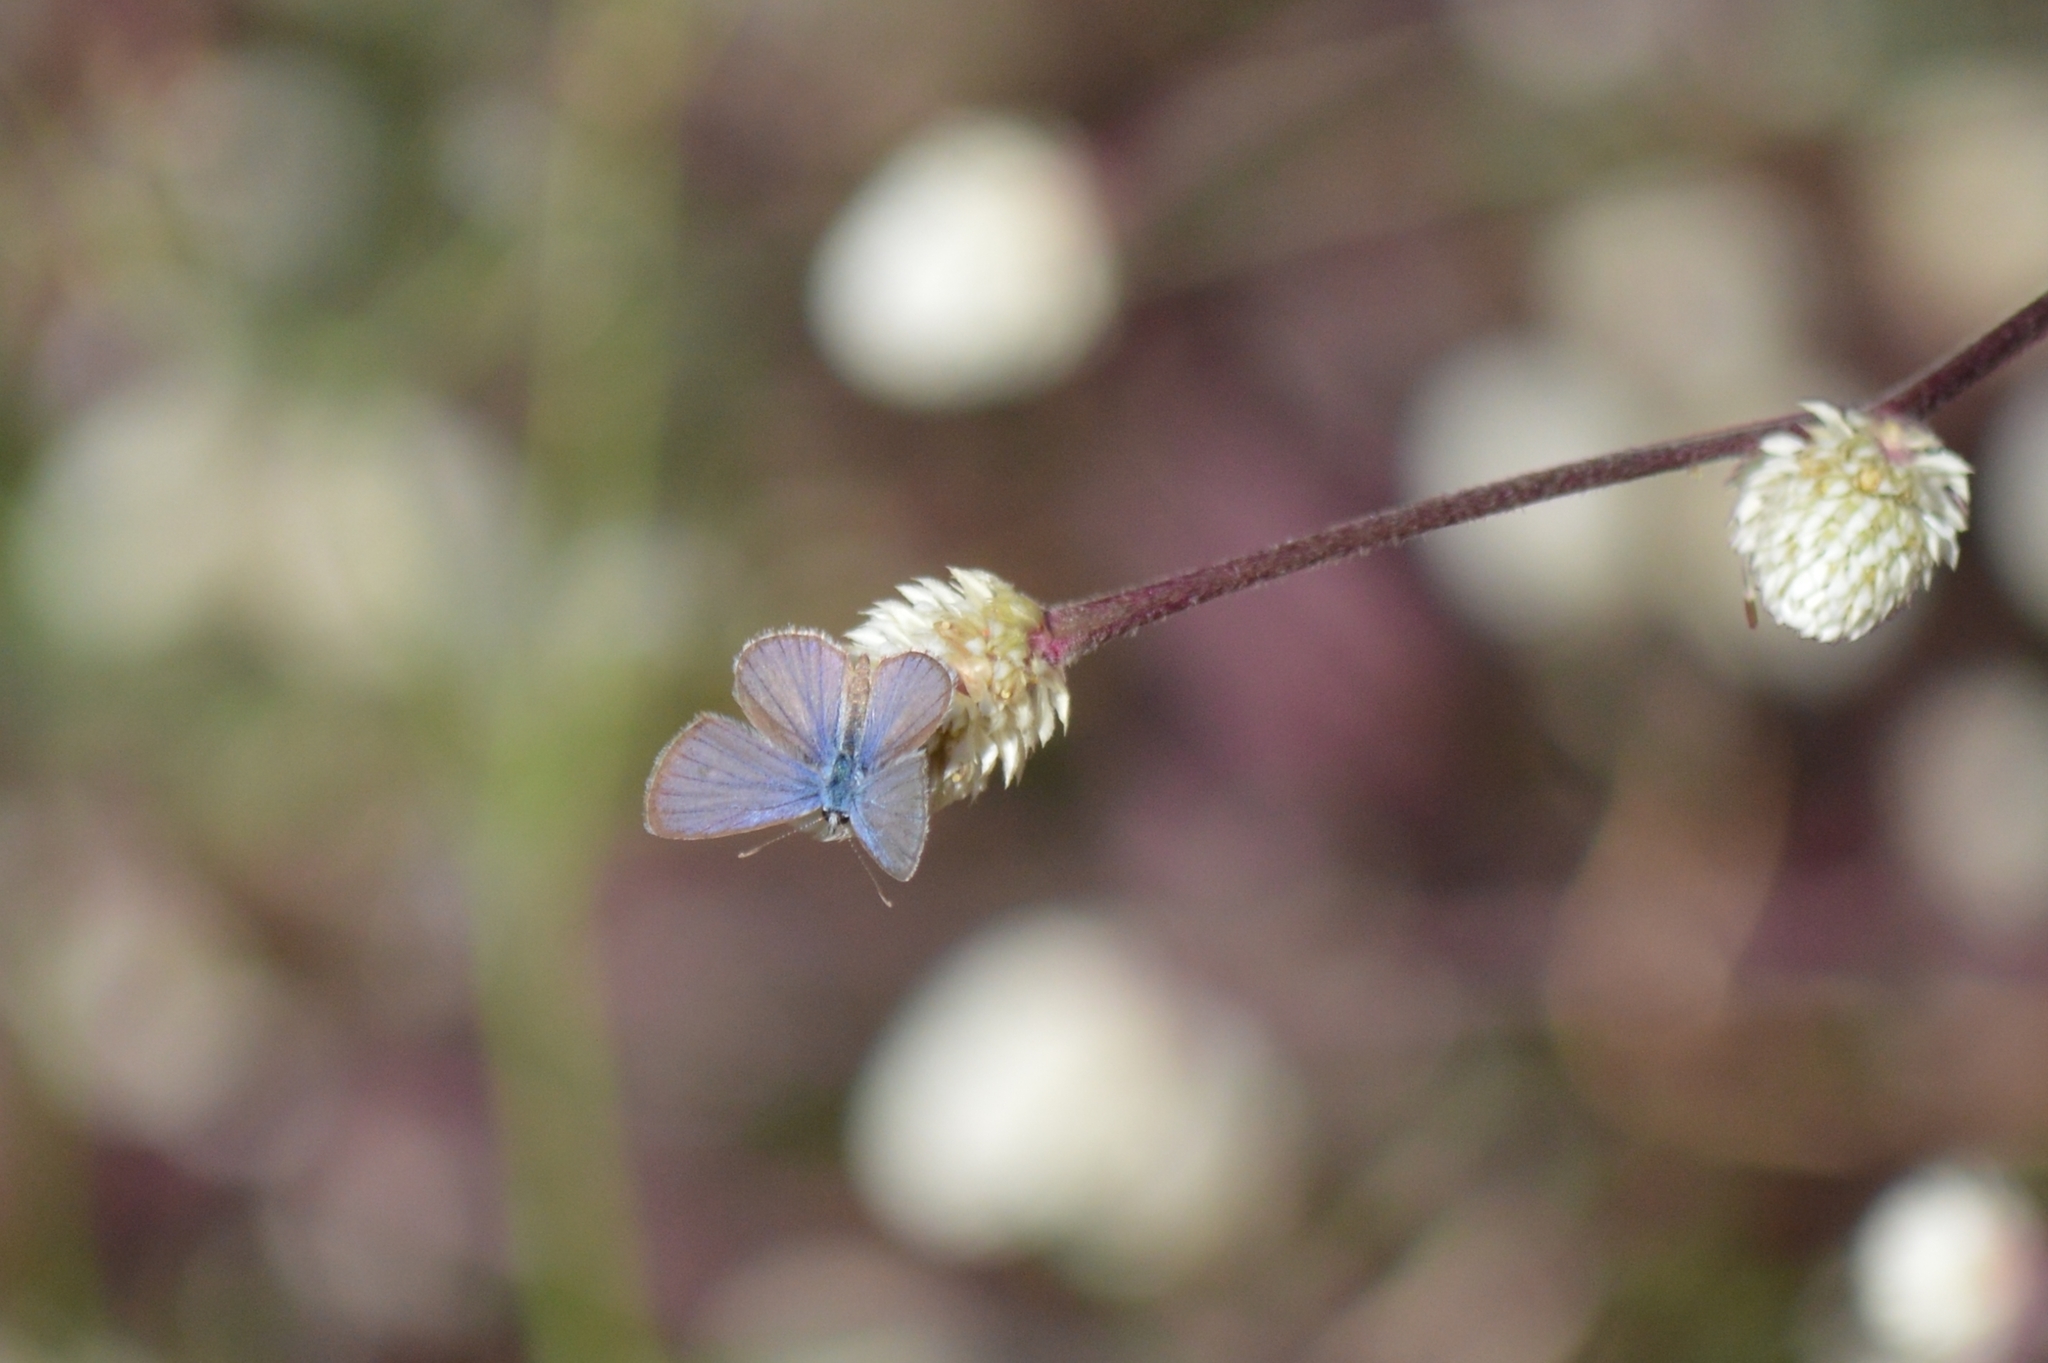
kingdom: Animalia
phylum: Arthropoda
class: Insecta
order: Lepidoptera
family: Lycaenidae
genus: Hemiargus
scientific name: Hemiargus hanno
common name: Common blue
